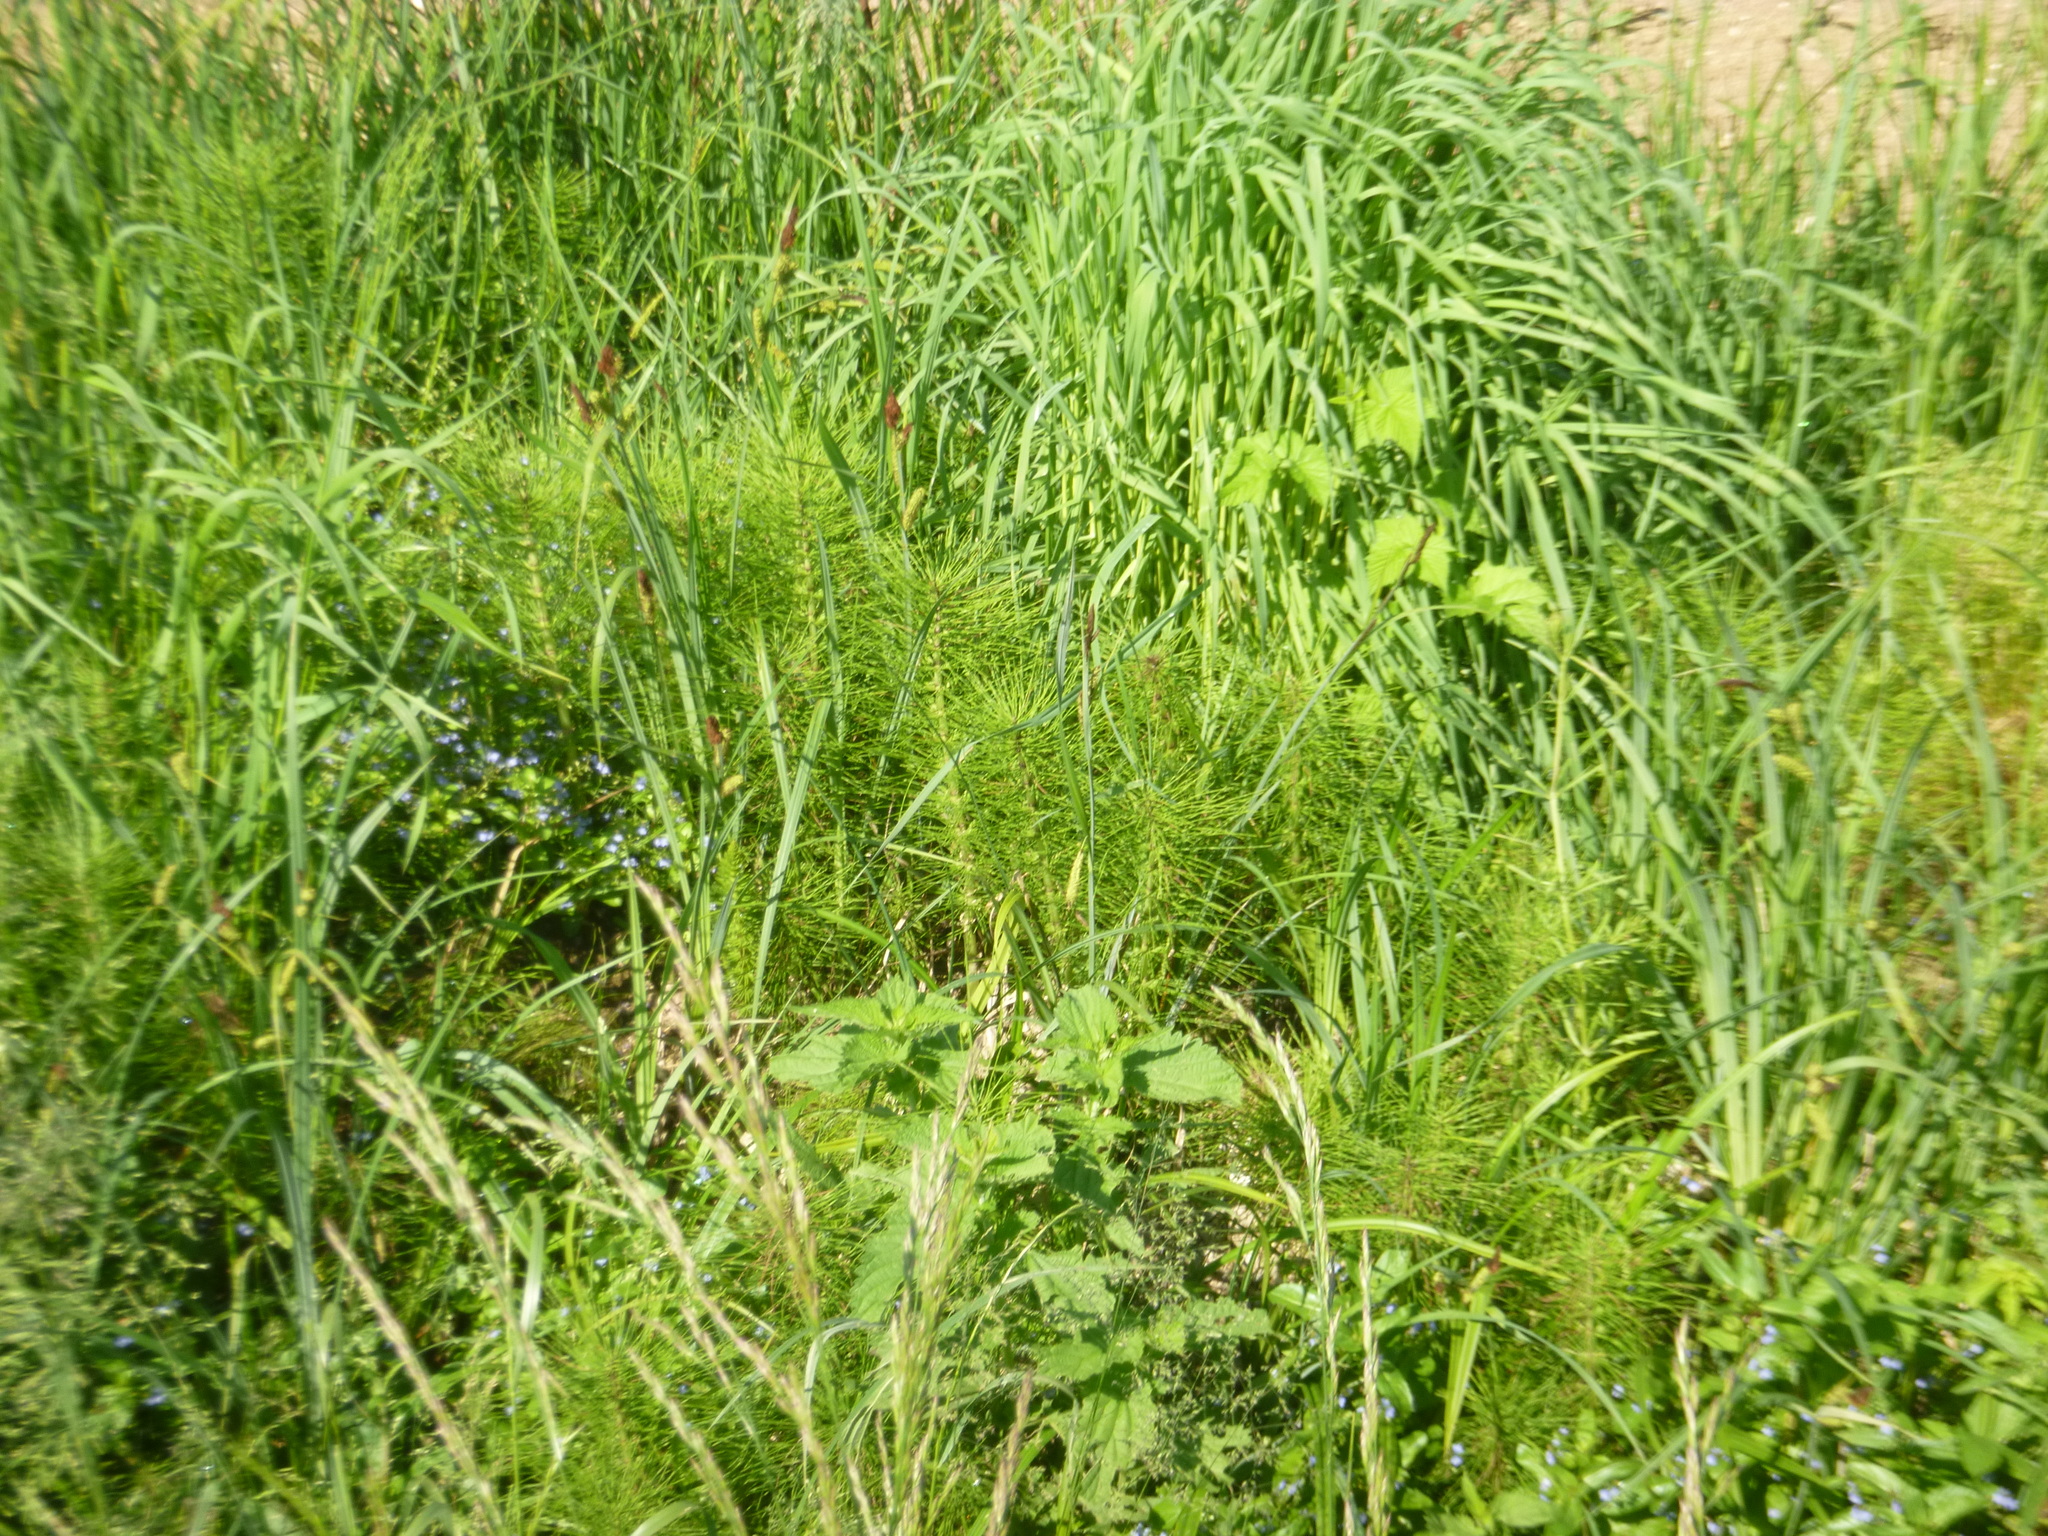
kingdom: Plantae
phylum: Tracheophyta
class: Polypodiopsida
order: Equisetales
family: Equisetaceae
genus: Equisetum
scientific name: Equisetum telmateia
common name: Great horsetail
